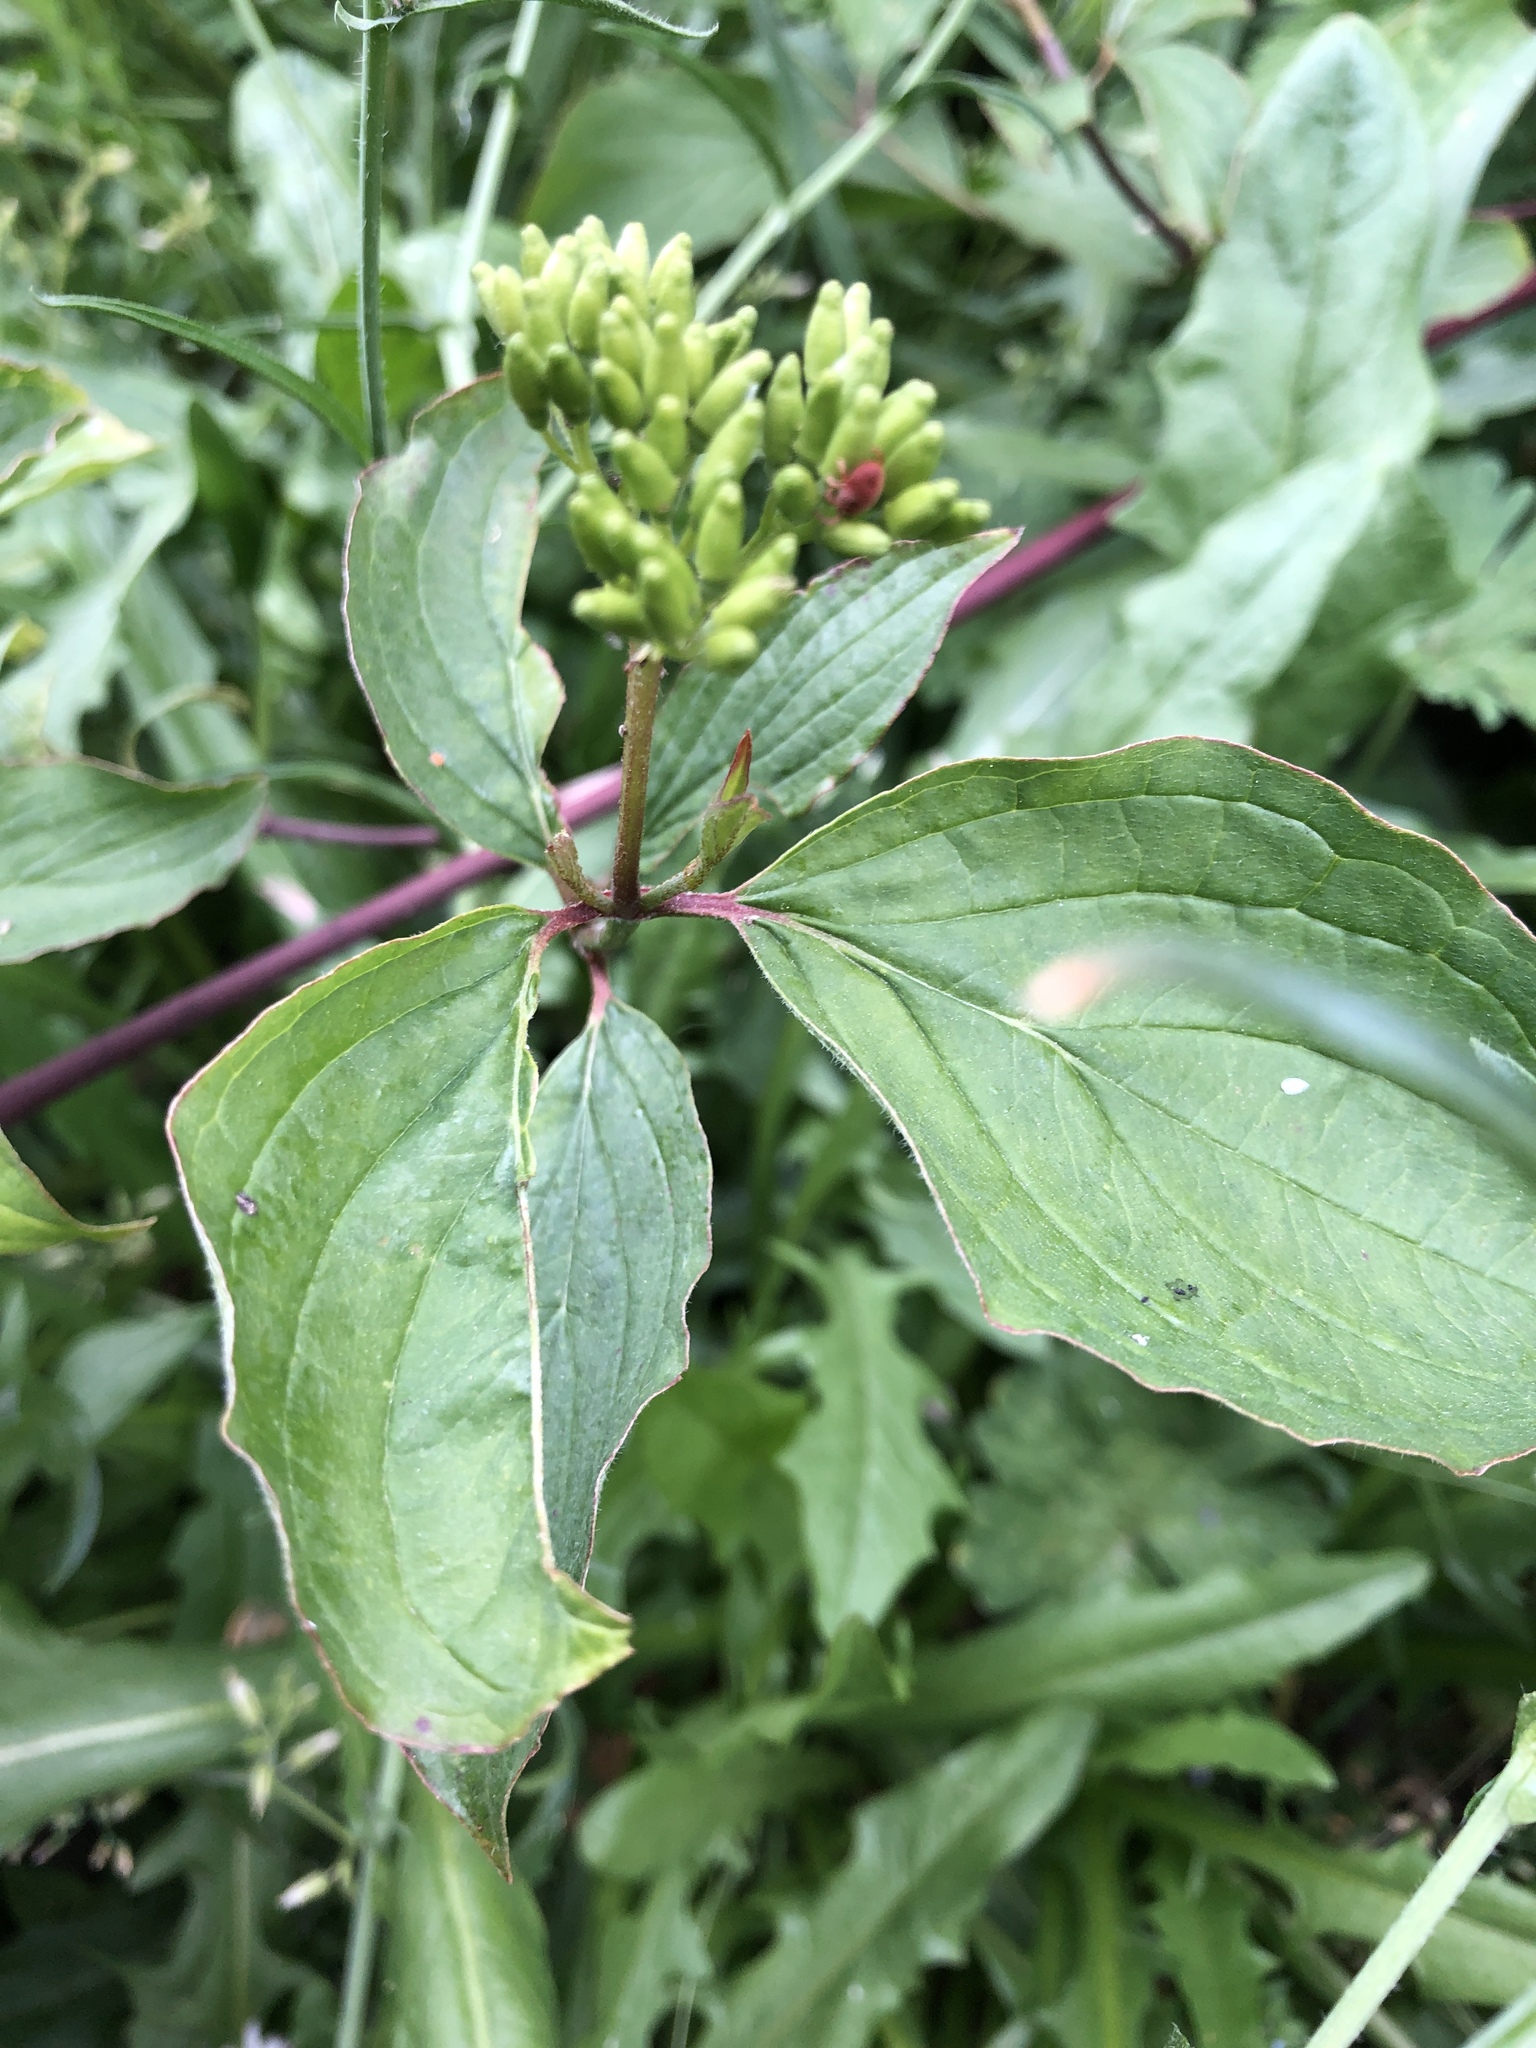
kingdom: Plantae
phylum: Tracheophyta
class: Magnoliopsida
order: Cornales
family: Cornaceae
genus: Cornus
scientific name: Cornus sanguinea
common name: Dogwood
